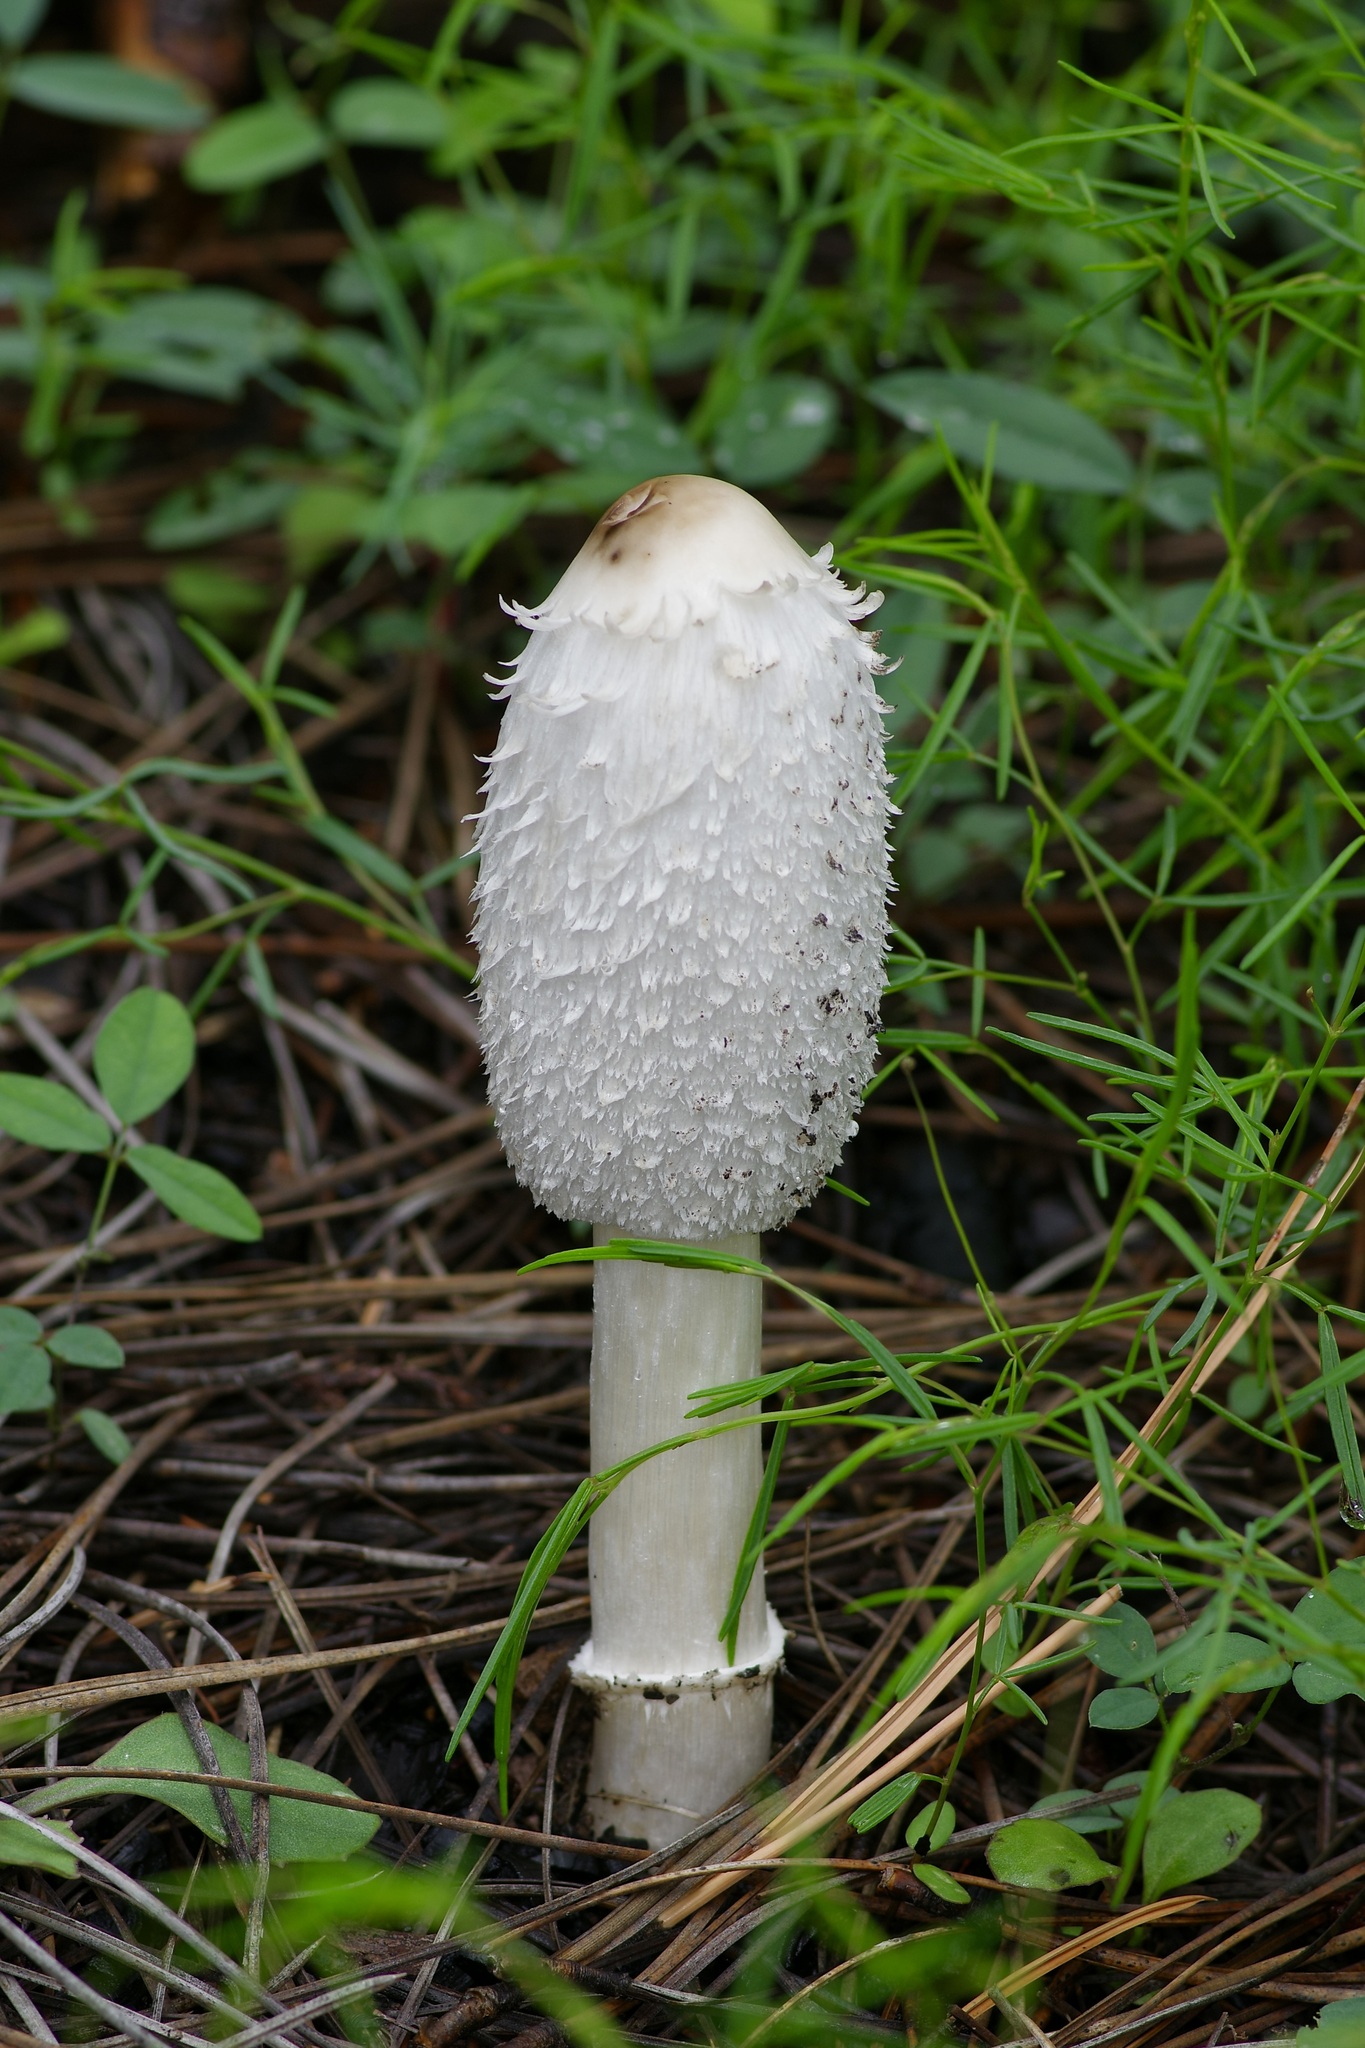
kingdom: Fungi
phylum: Basidiomycota
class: Agaricomycetes
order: Agaricales
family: Agaricaceae
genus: Coprinus
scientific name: Coprinus comatus
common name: Lawyer's wig
